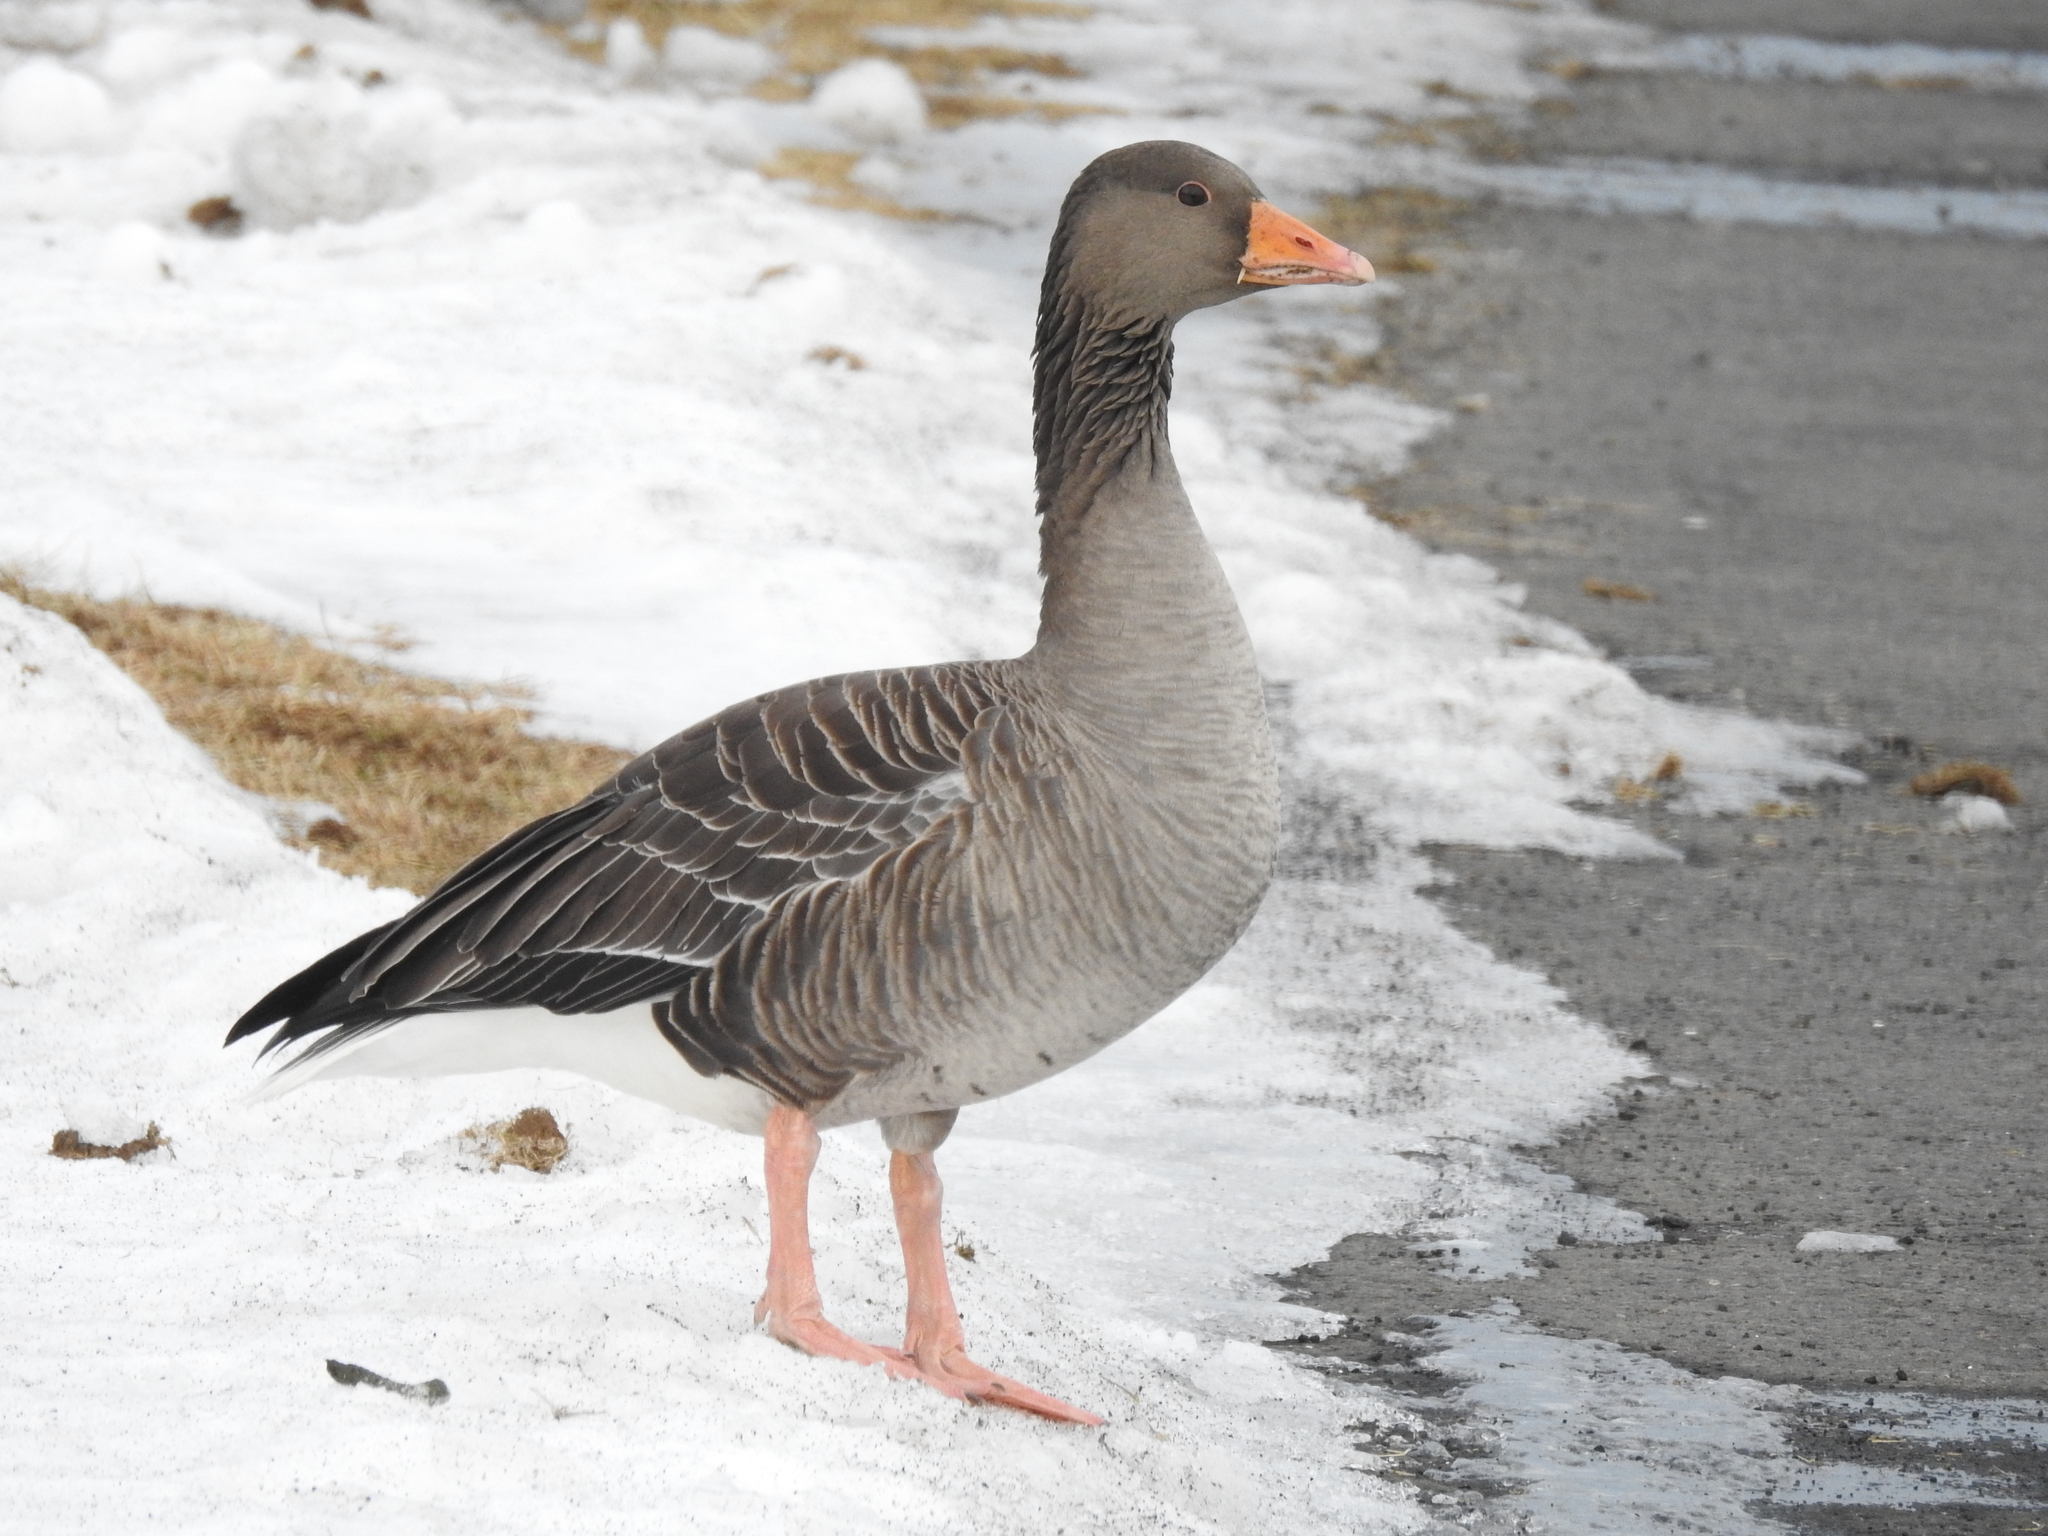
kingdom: Animalia
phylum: Chordata
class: Aves
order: Anseriformes
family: Anatidae
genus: Anser
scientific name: Anser anser
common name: Greylag goose
